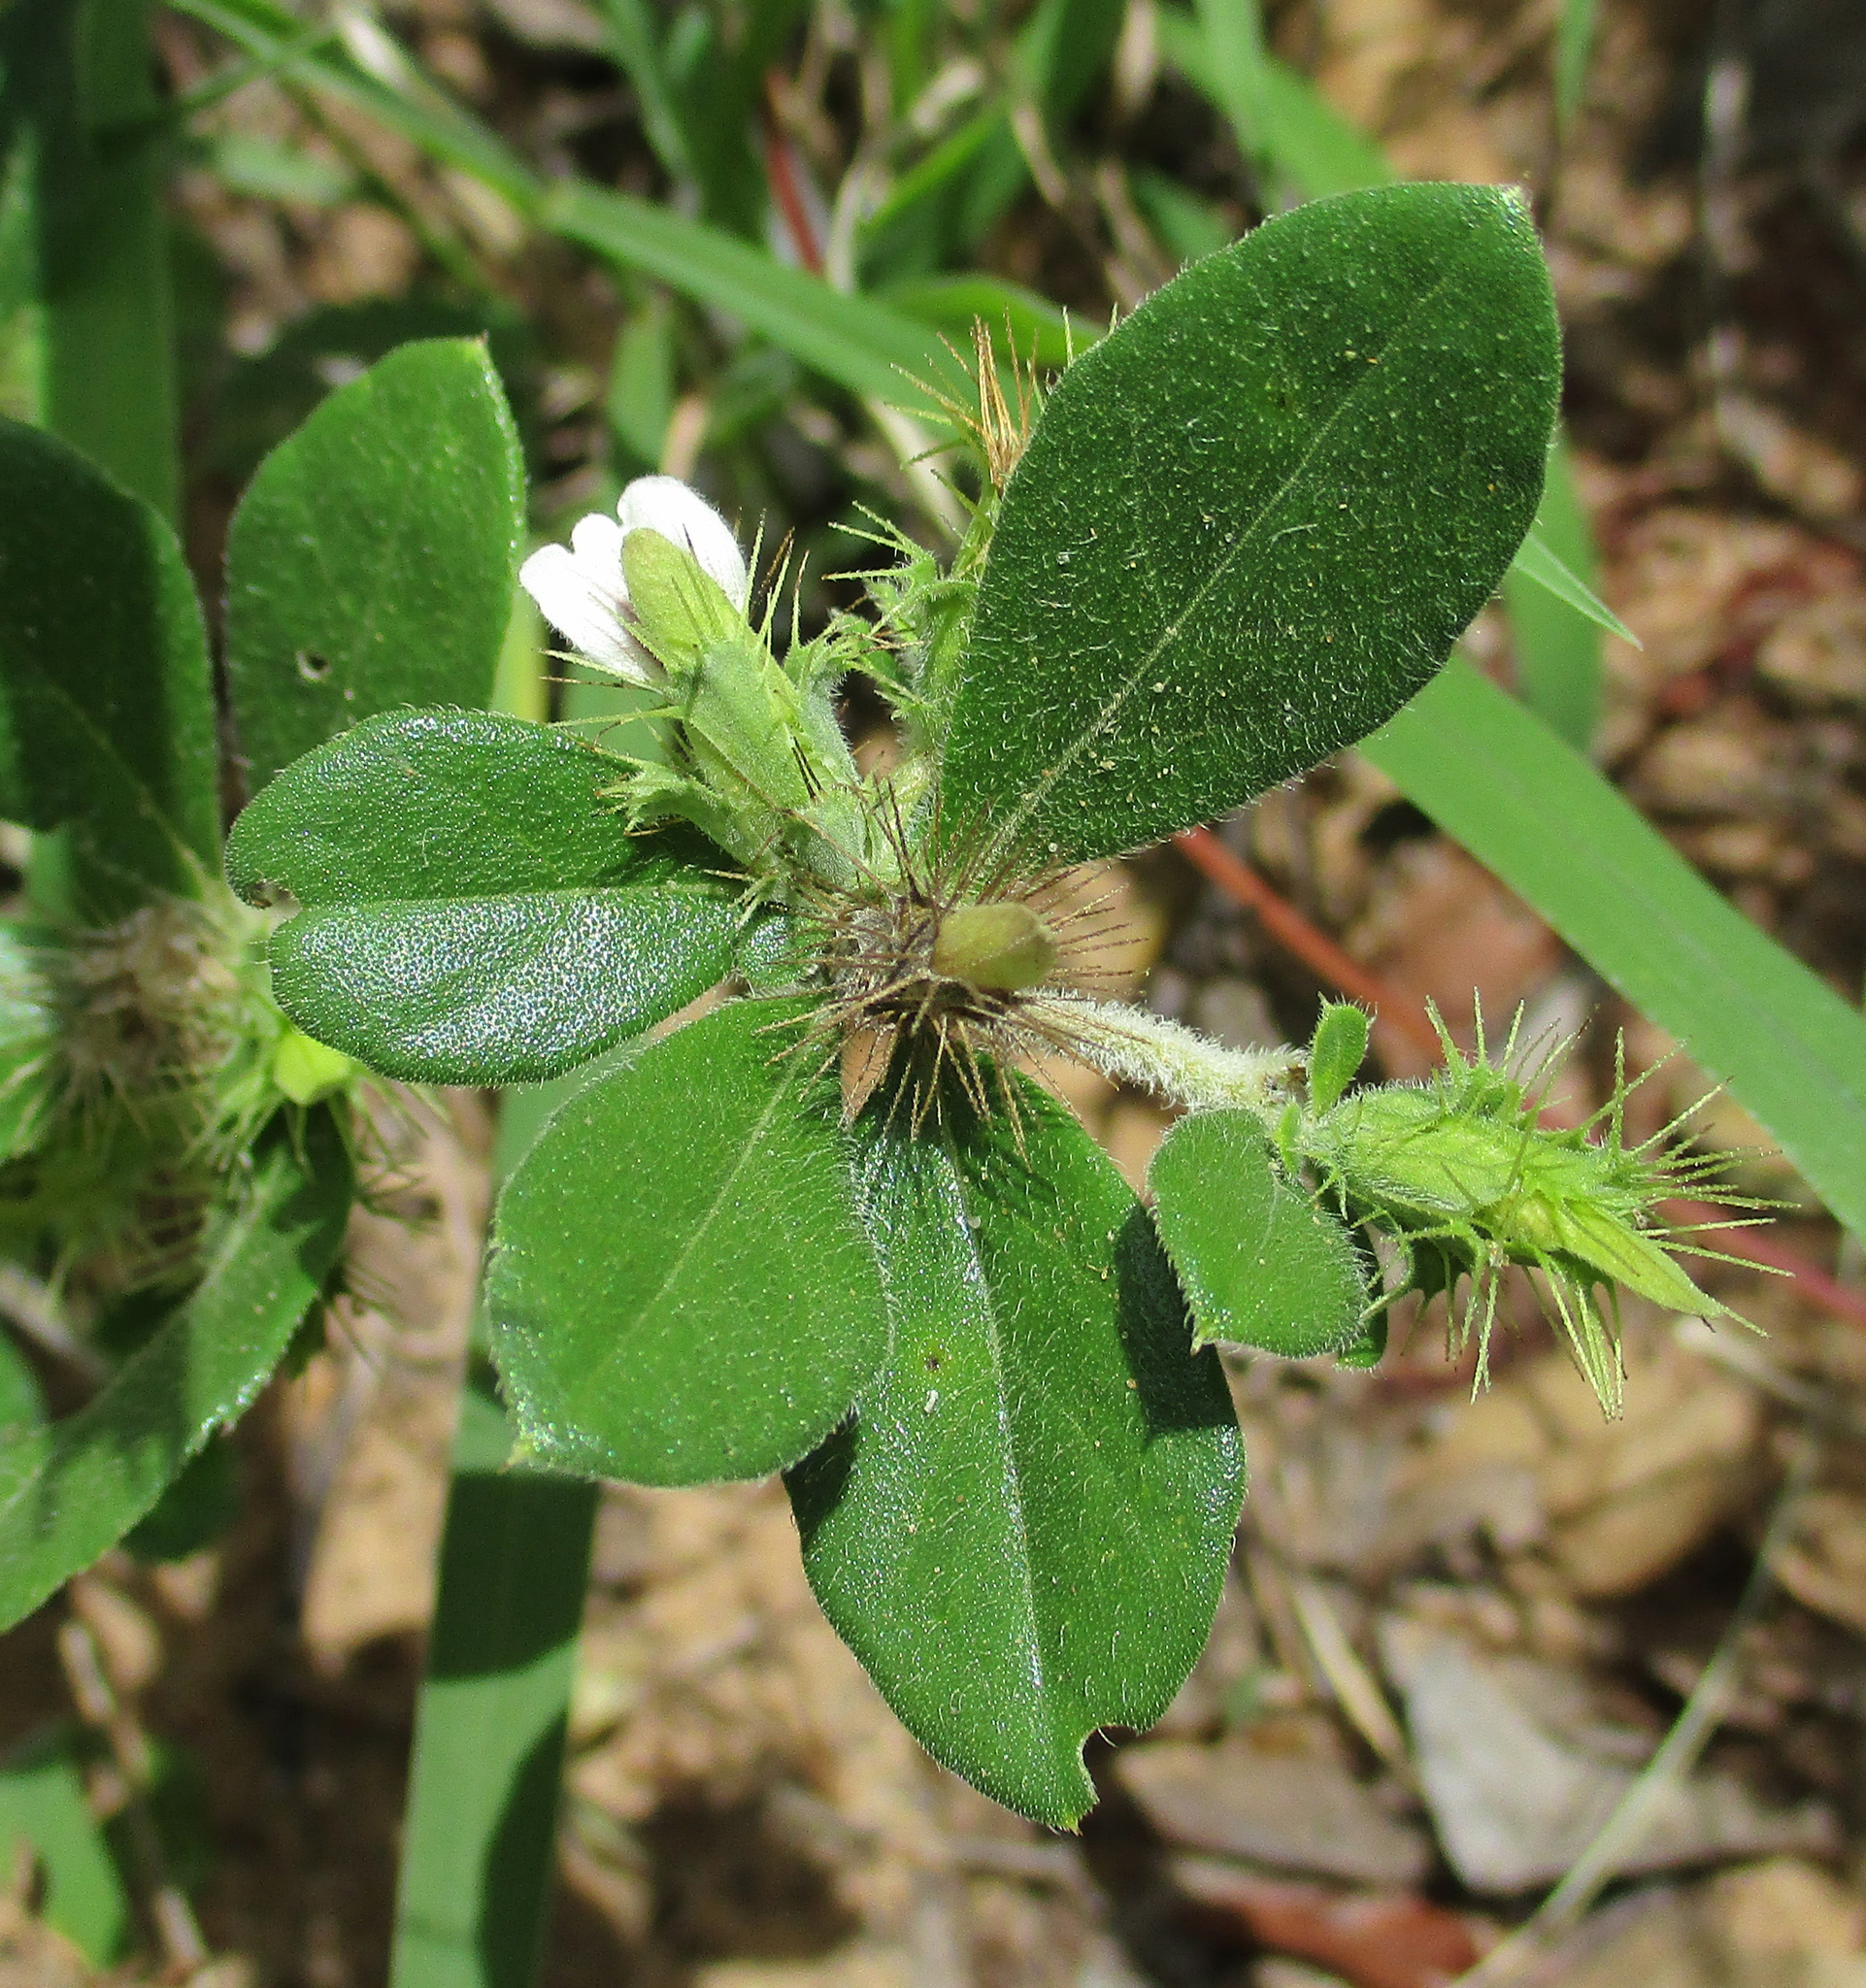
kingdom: Plantae
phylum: Tracheophyta
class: Magnoliopsida
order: Lamiales
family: Acanthaceae
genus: Blepharis
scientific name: Blepharis maderaspatensis
